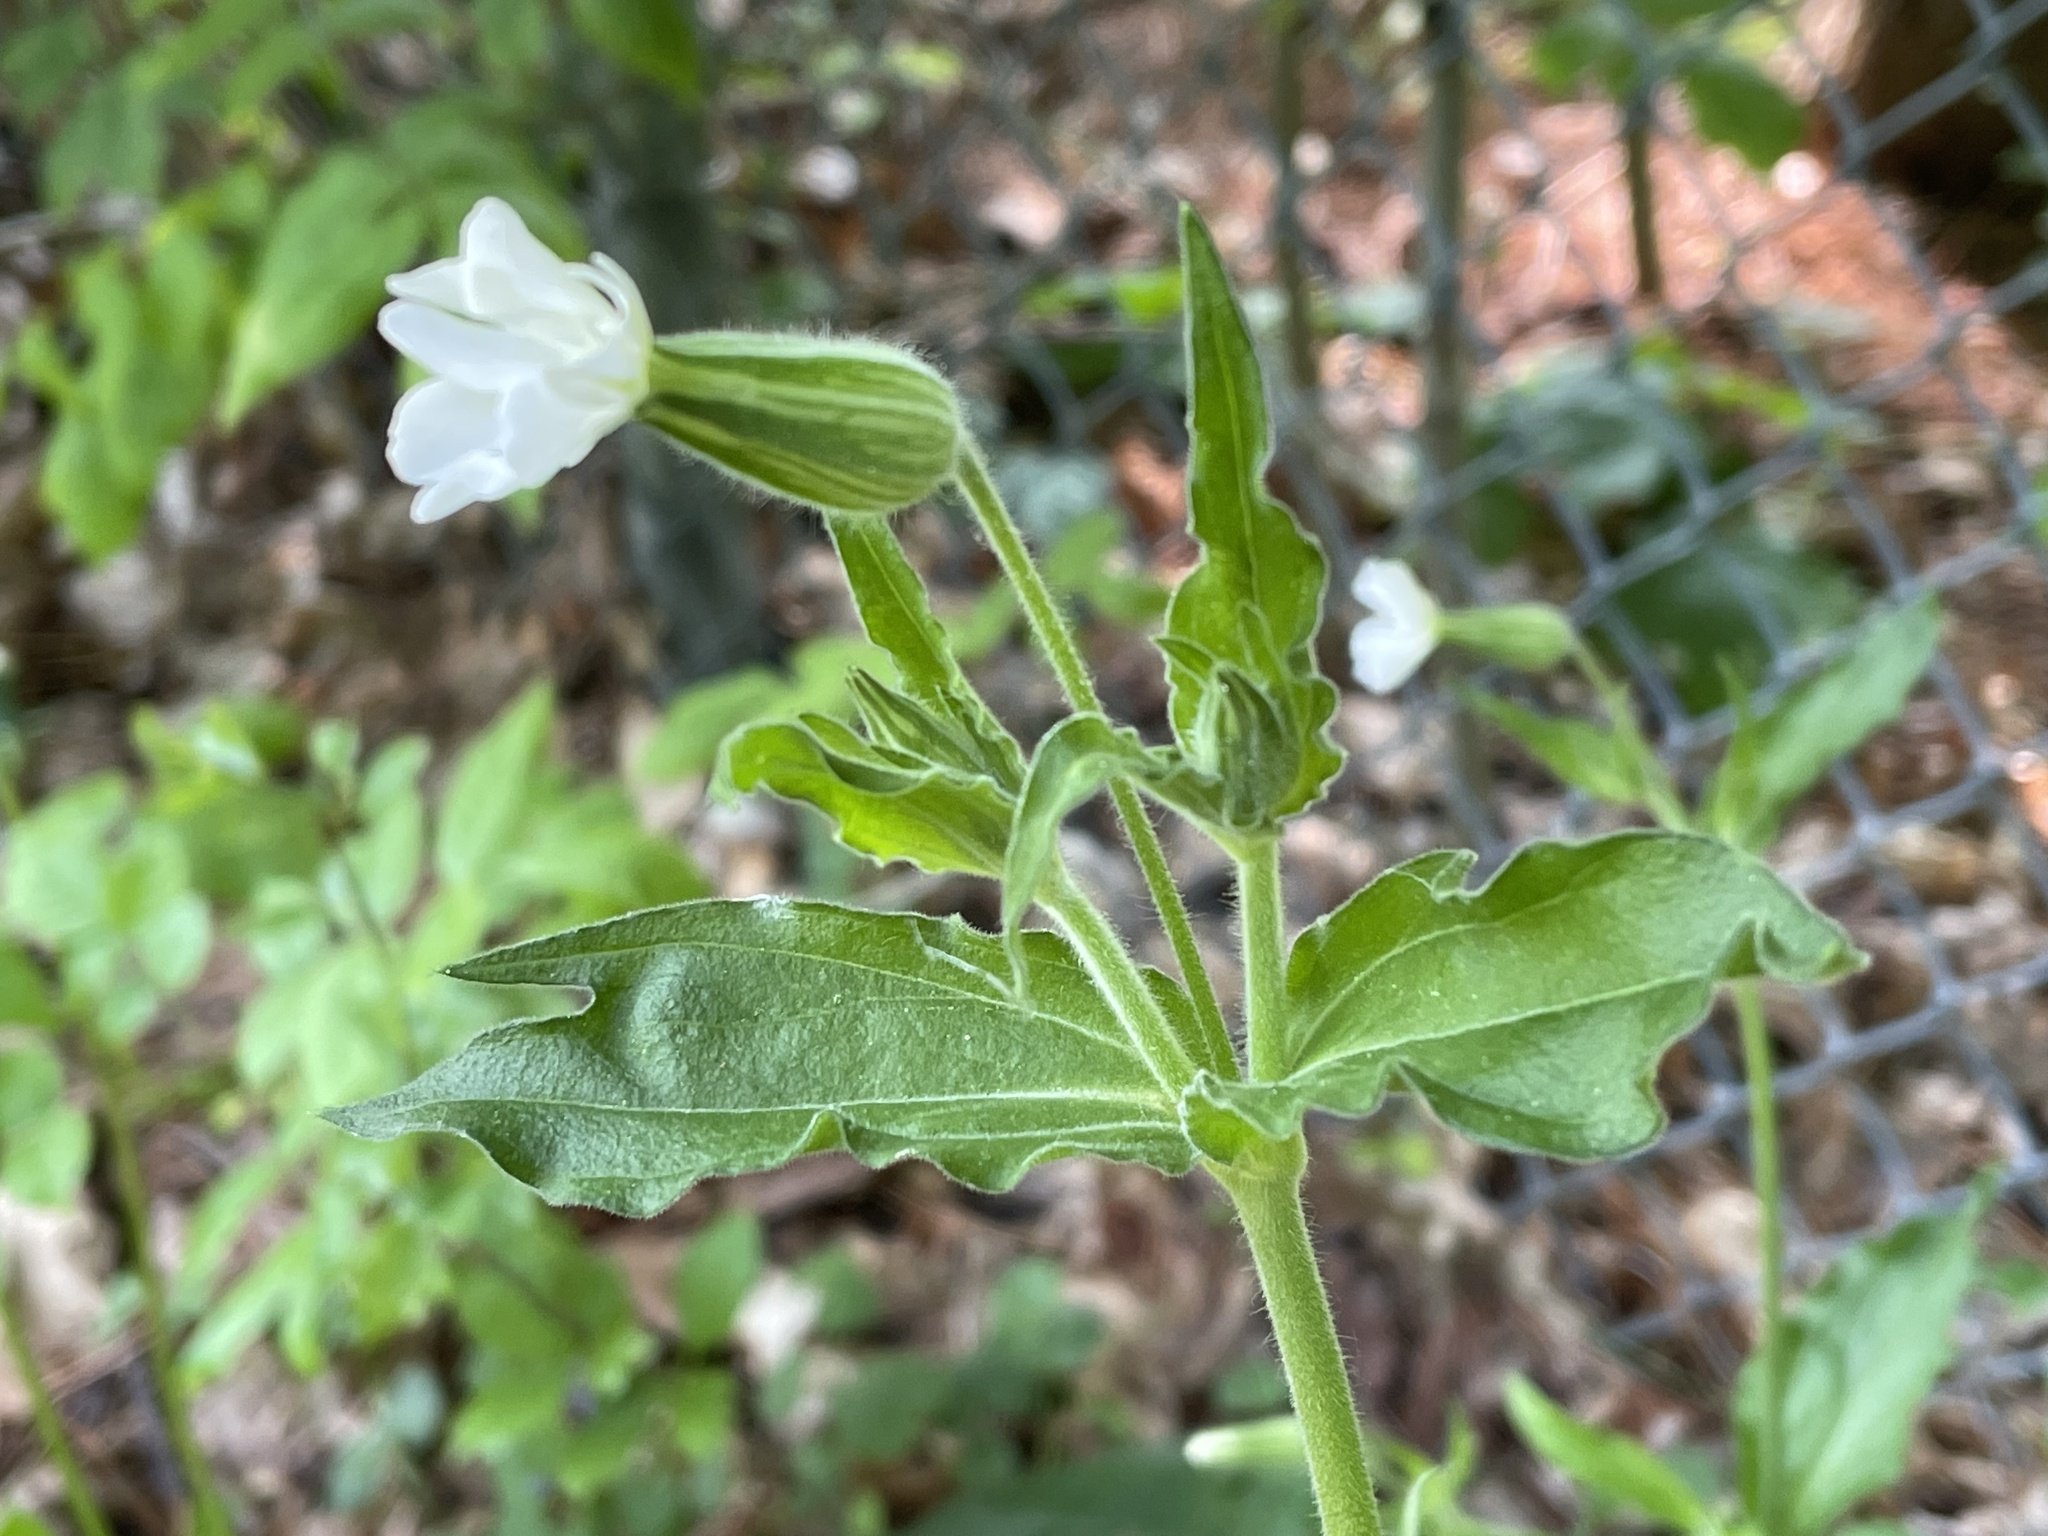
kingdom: Plantae
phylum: Tracheophyta
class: Magnoliopsida
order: Caryophyllales
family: Caryophyllaceae
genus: Silene
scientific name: Silene latifolia
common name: White campion
